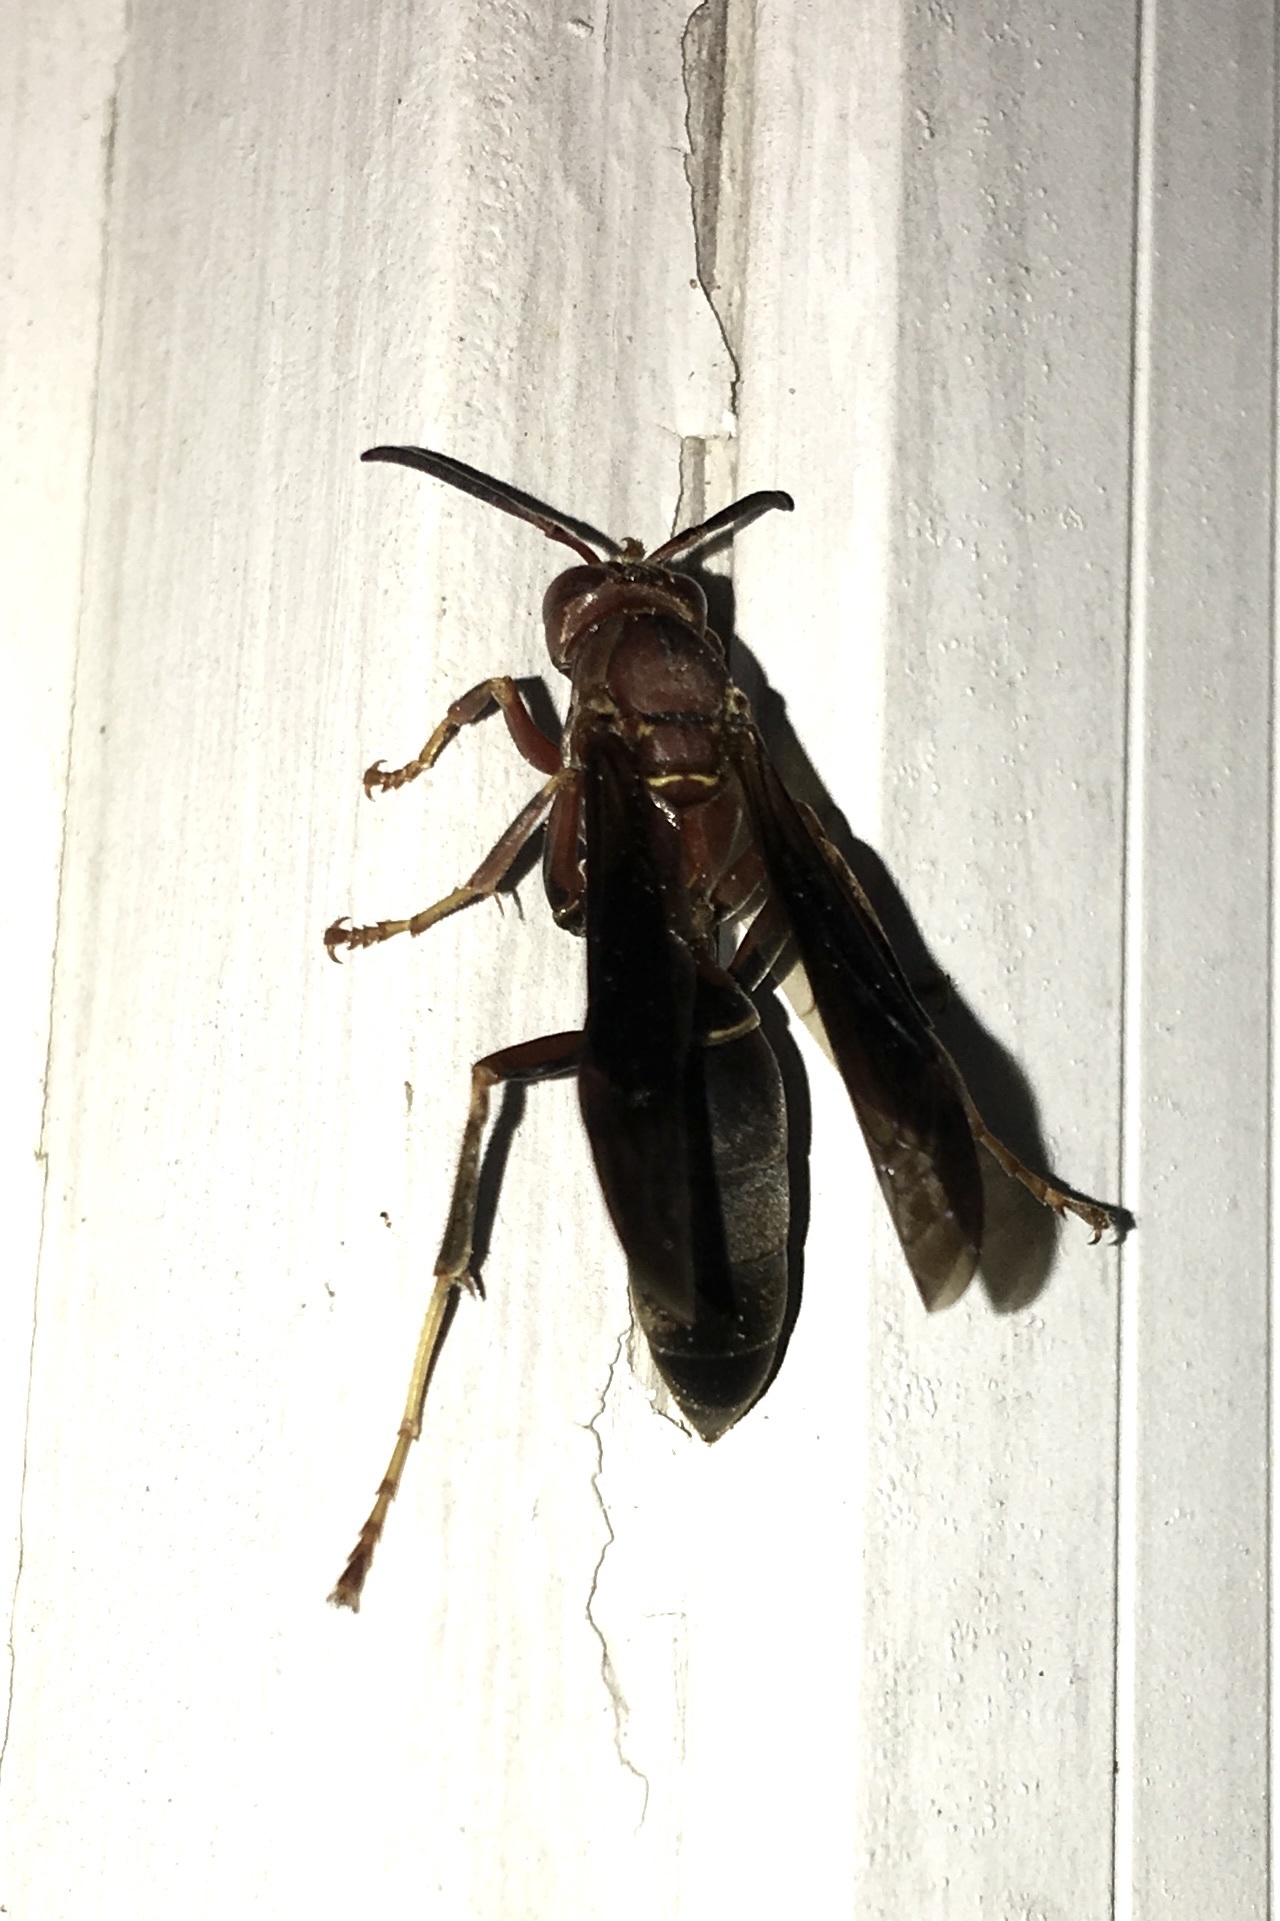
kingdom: Animalia
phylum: Arthropoda
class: Insecta
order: Hymenoptera
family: Eumenidae
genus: Polistes
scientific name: Polistes metricus
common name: Metric paper wasp
